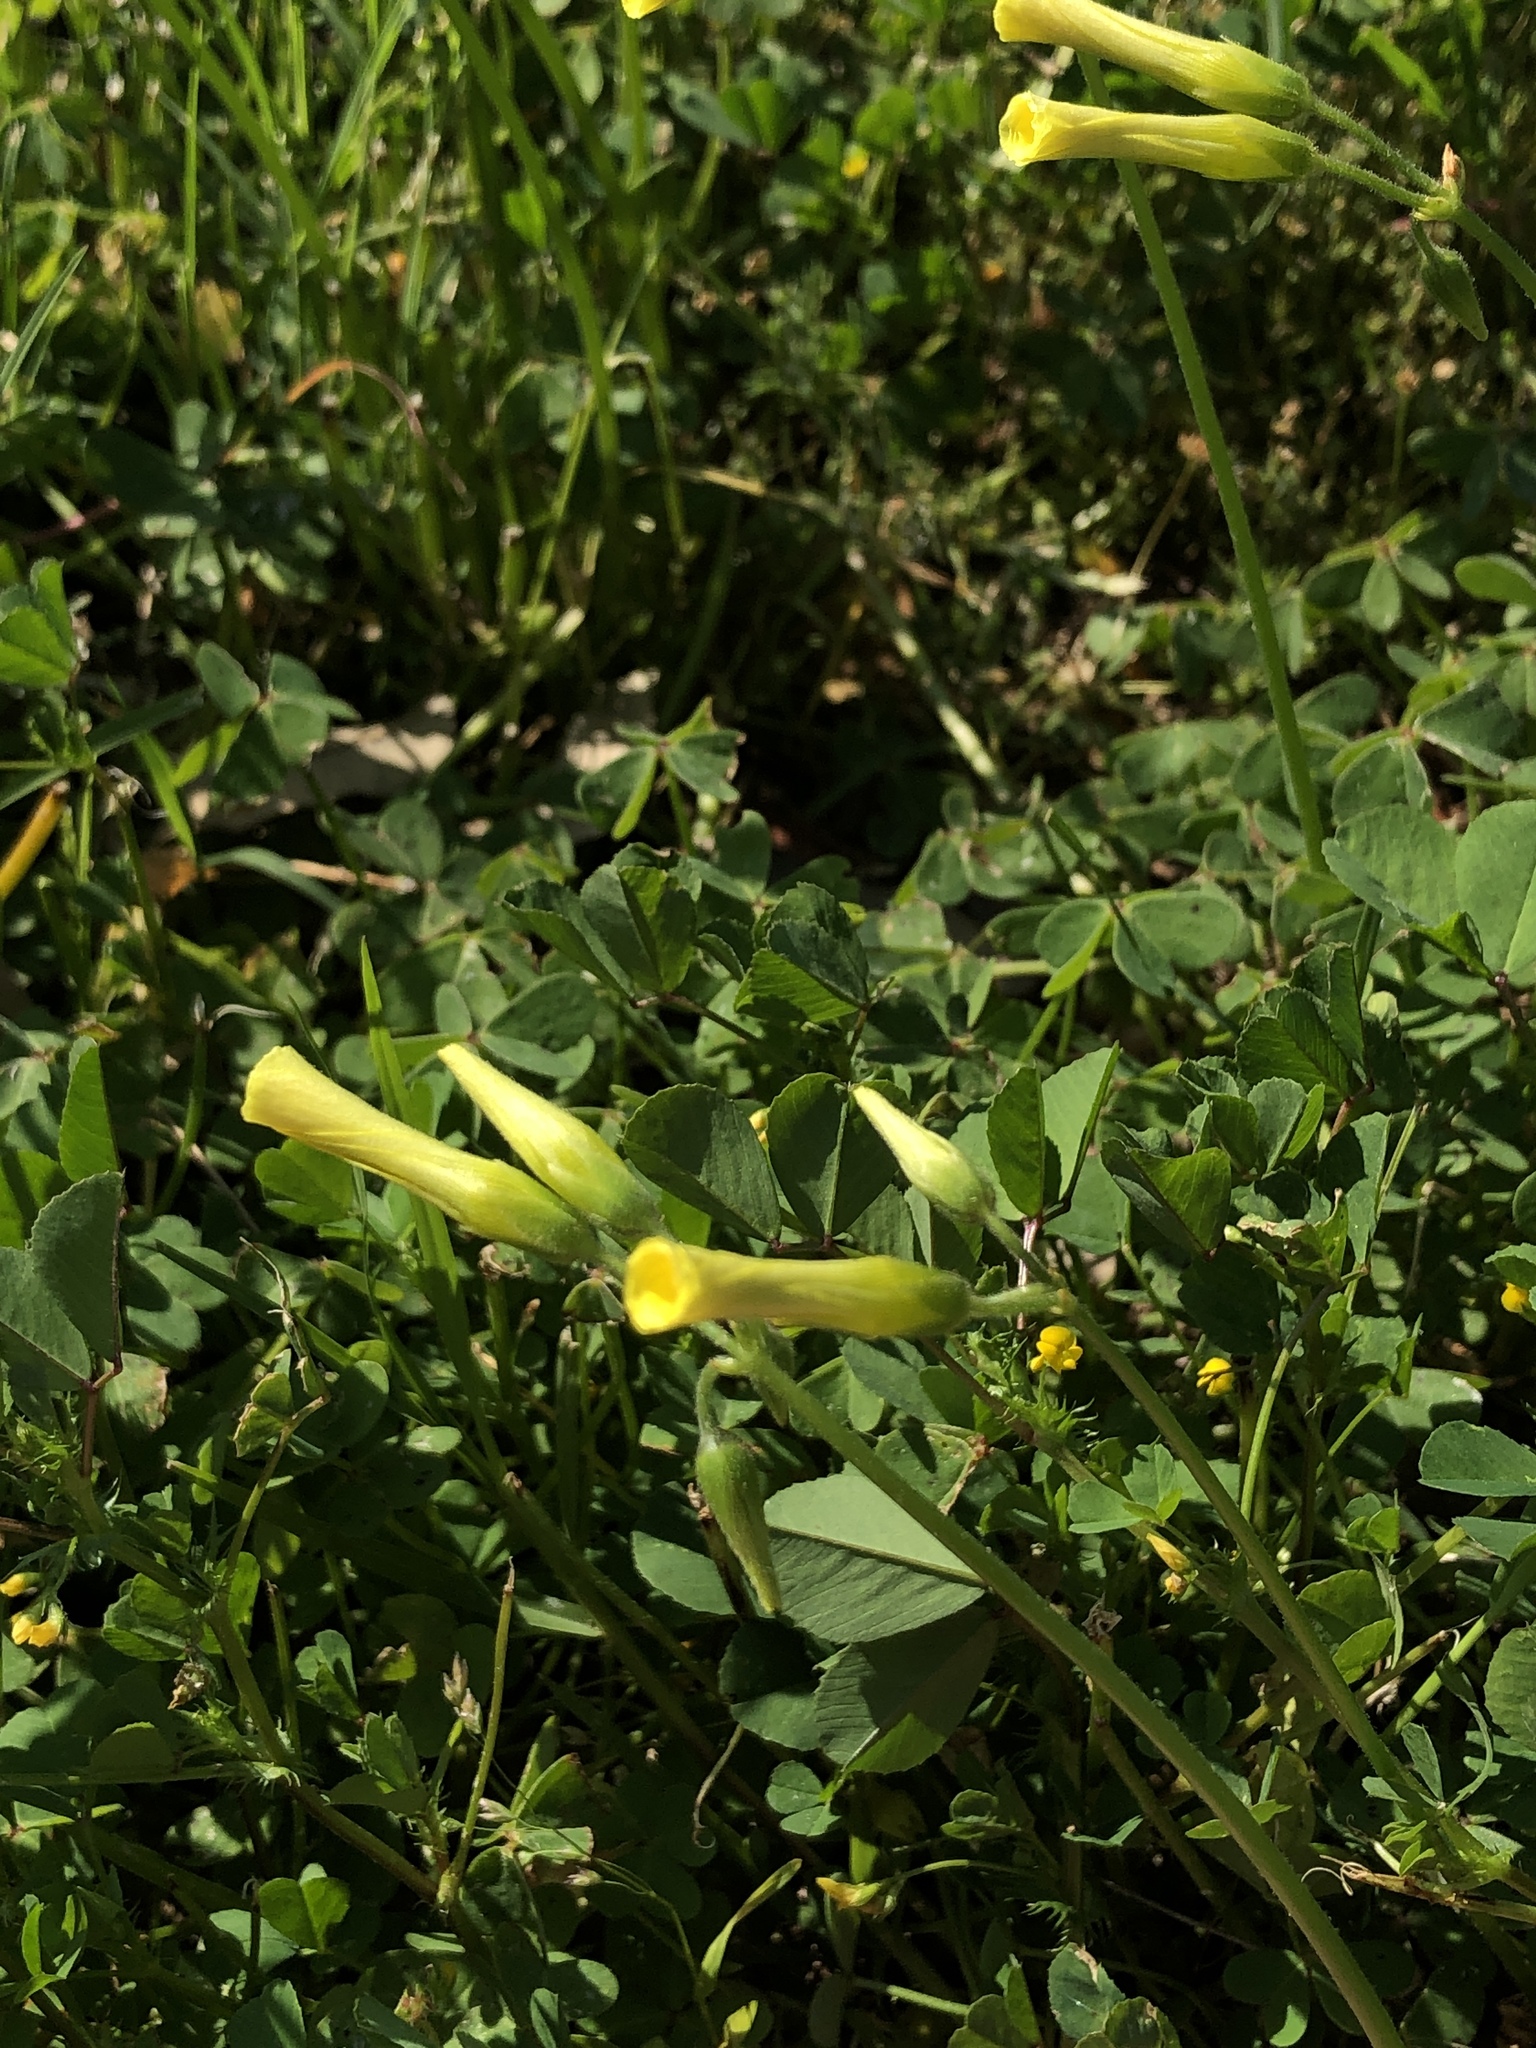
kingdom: Plantae
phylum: Tracheophyta
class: Magnoliopsida
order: Oxalidales
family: Oxalidaceae
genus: Oxalis
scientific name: Oxalis pes-caprae
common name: Bermuda-buttercup
